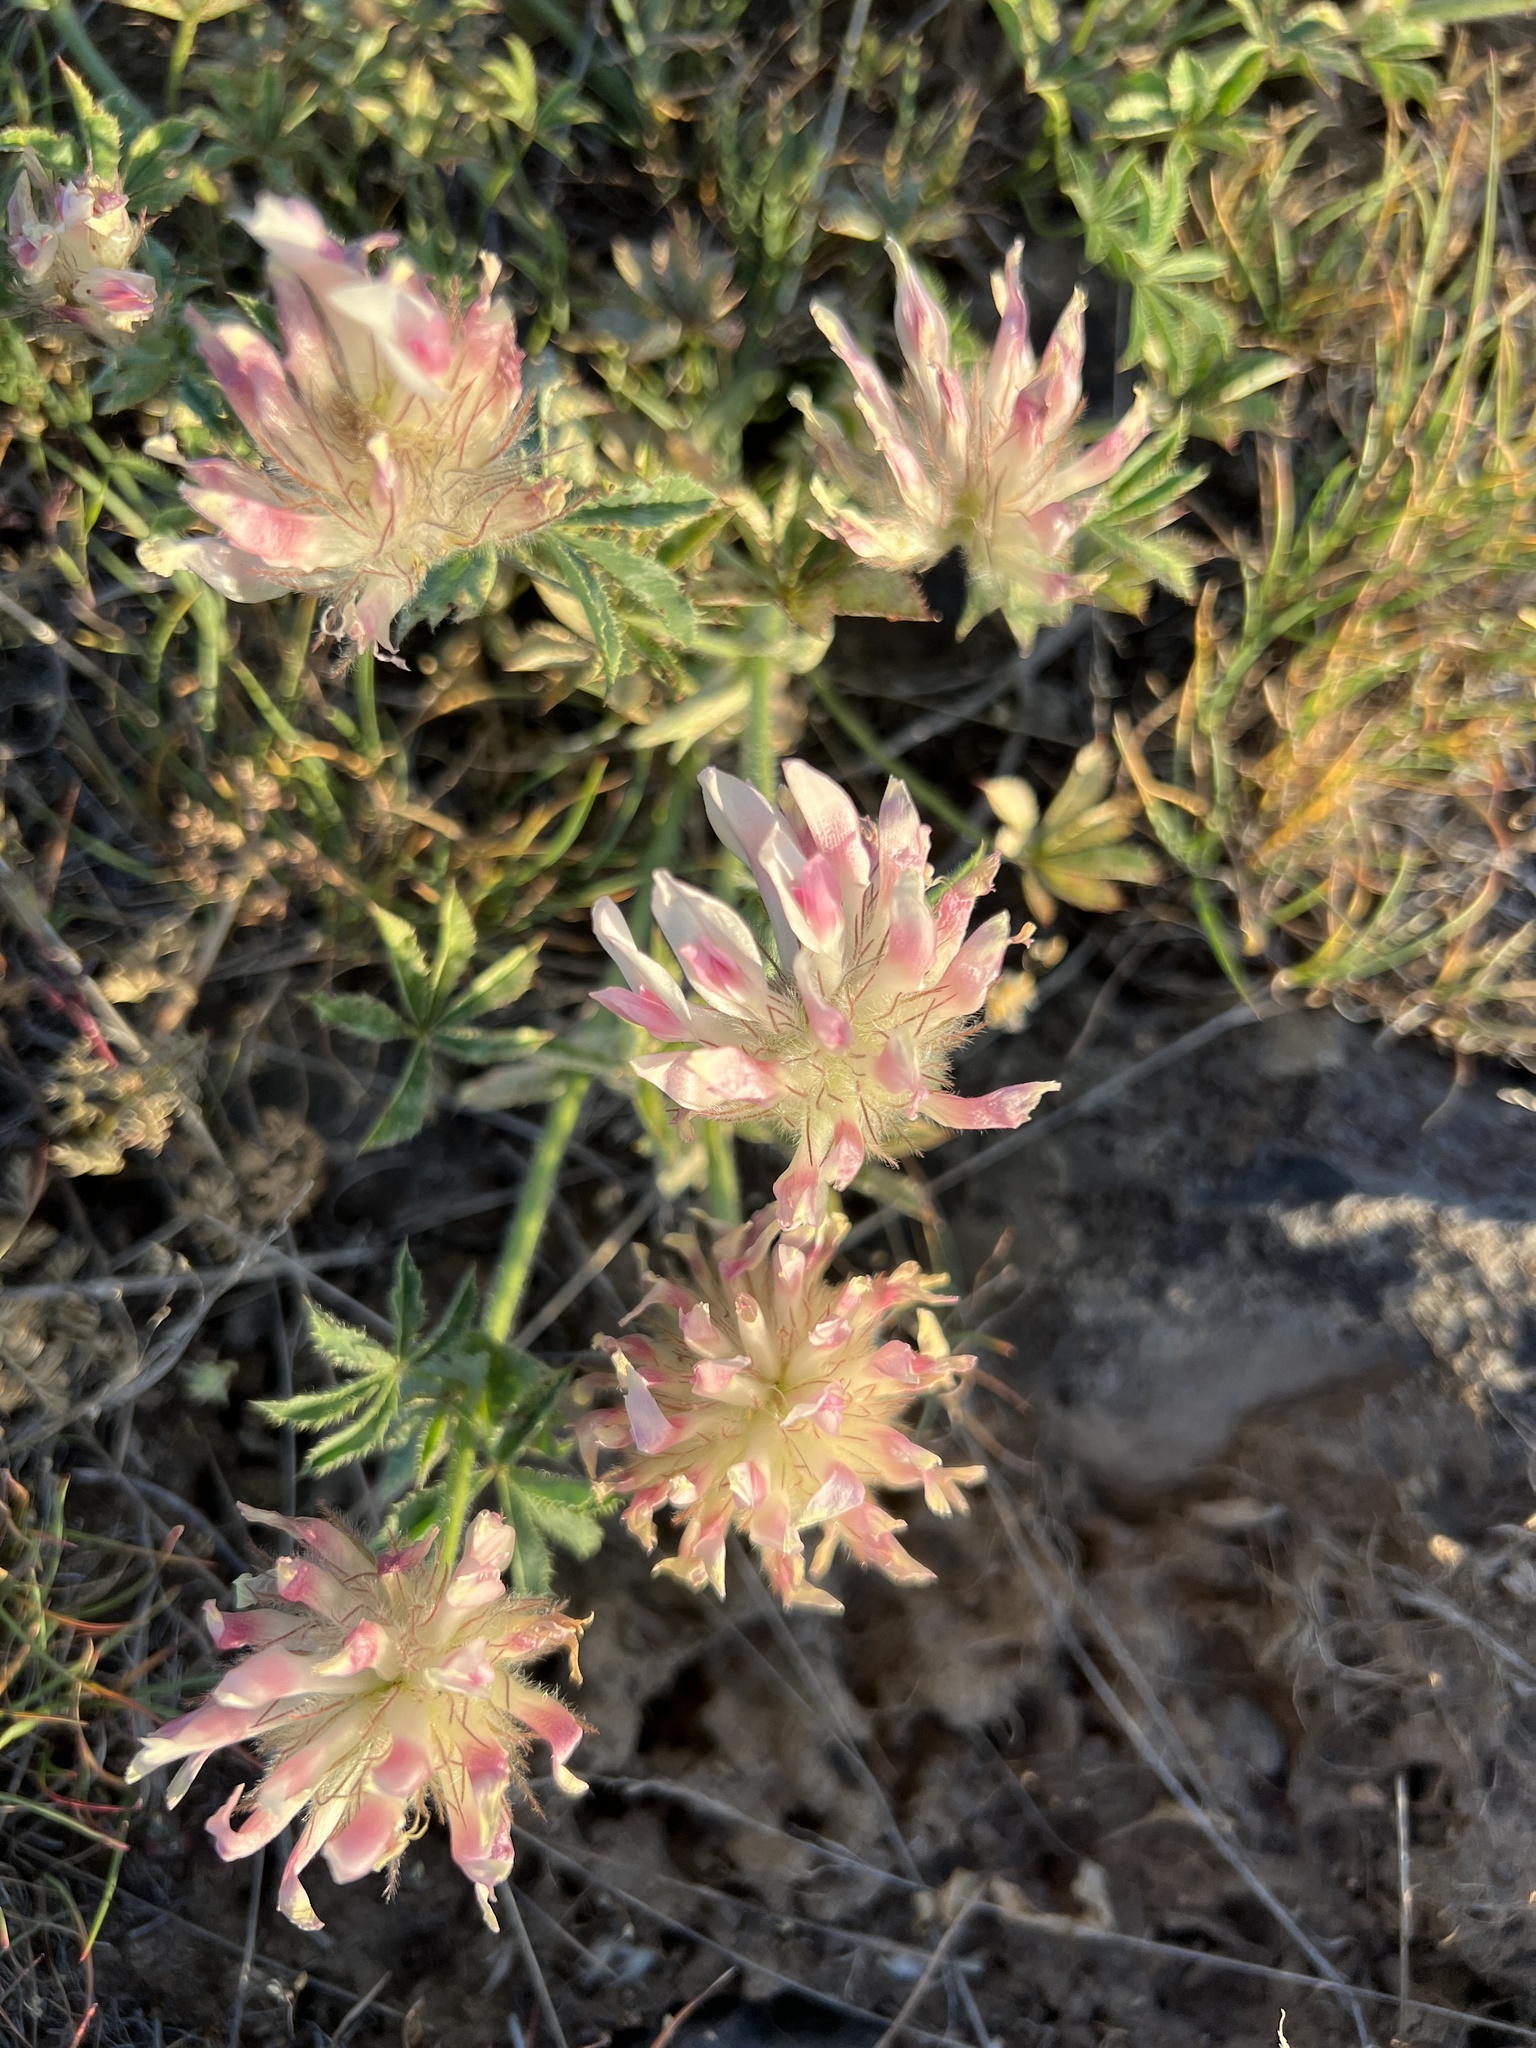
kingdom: Plantae
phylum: Tracheophyta
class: Magnoliopsida
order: Fabales
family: Fabaceae
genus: Trifolium
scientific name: Trifolium macrocephalum
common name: Large-head clover
